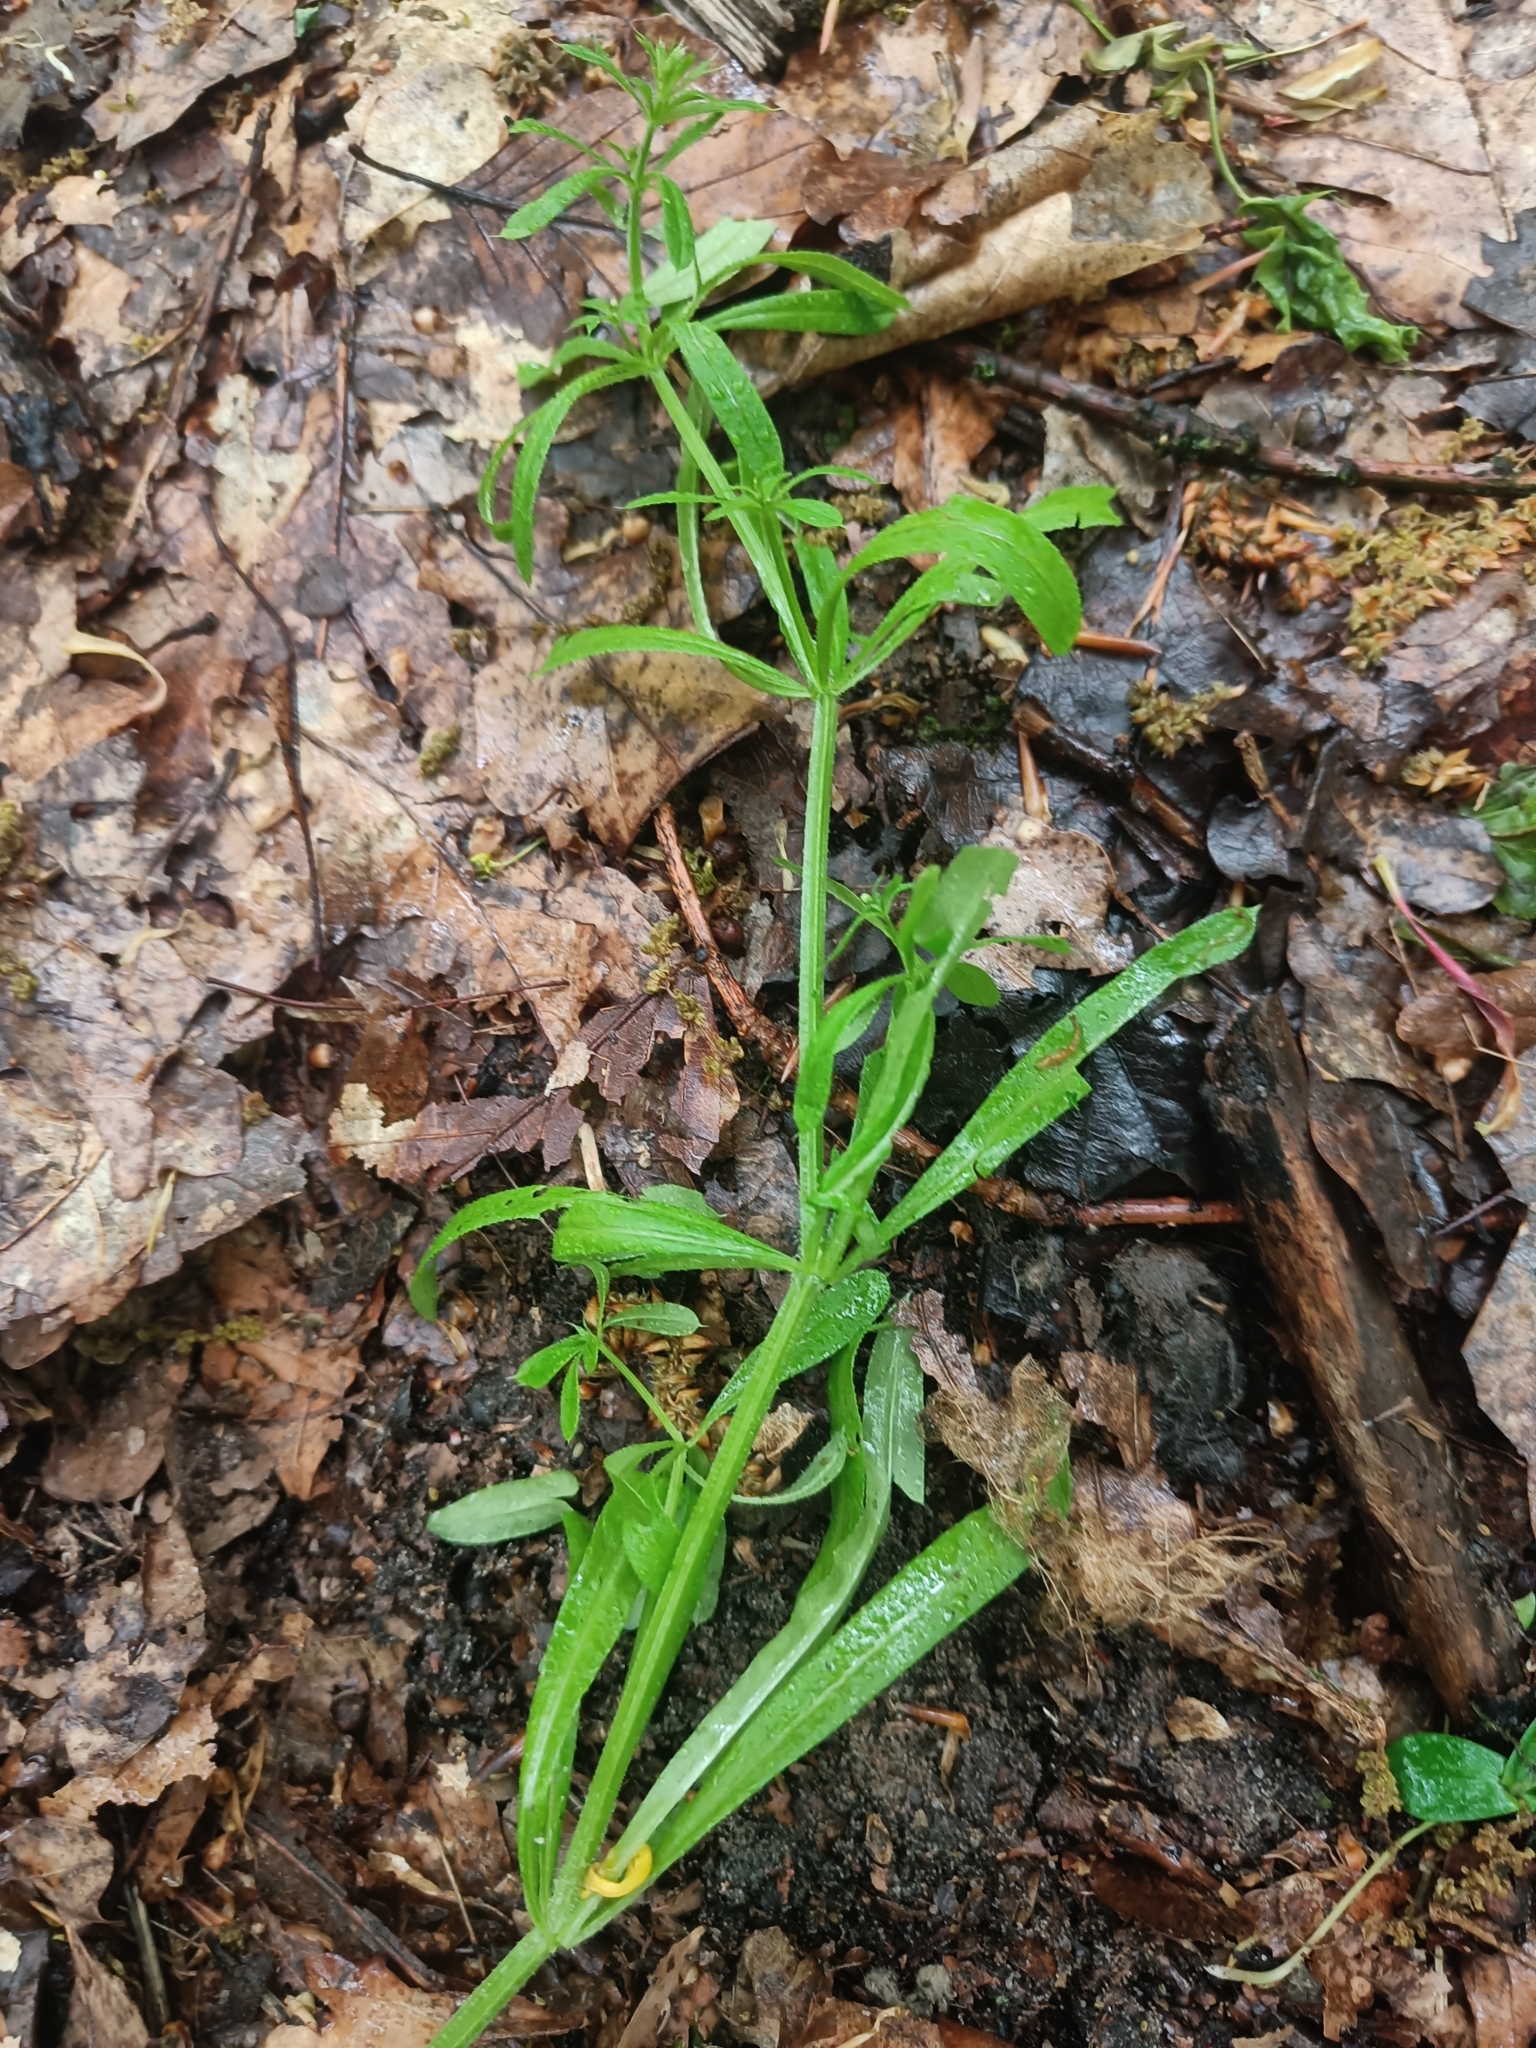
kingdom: Plantae
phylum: Tracheophyta
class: Magnoliopsida
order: Gentianales
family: Rubiaceae
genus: Galium
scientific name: Galium aparine
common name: Cleavers
